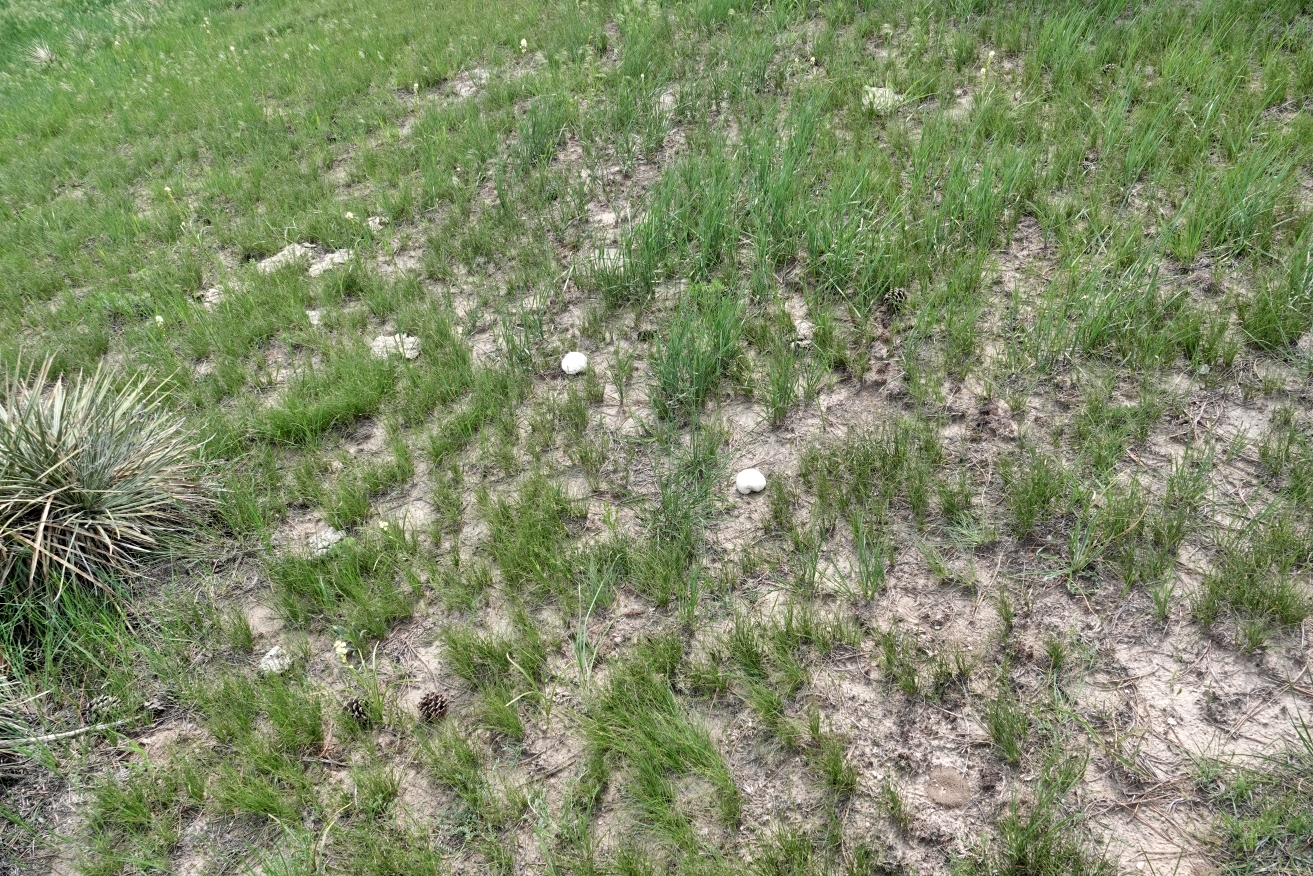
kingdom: Fungi
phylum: Basidiomycota
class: Agaricomycetes
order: Agaricales
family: Lycoperdaceae
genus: Calvatia
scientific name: Calvatia booniana
